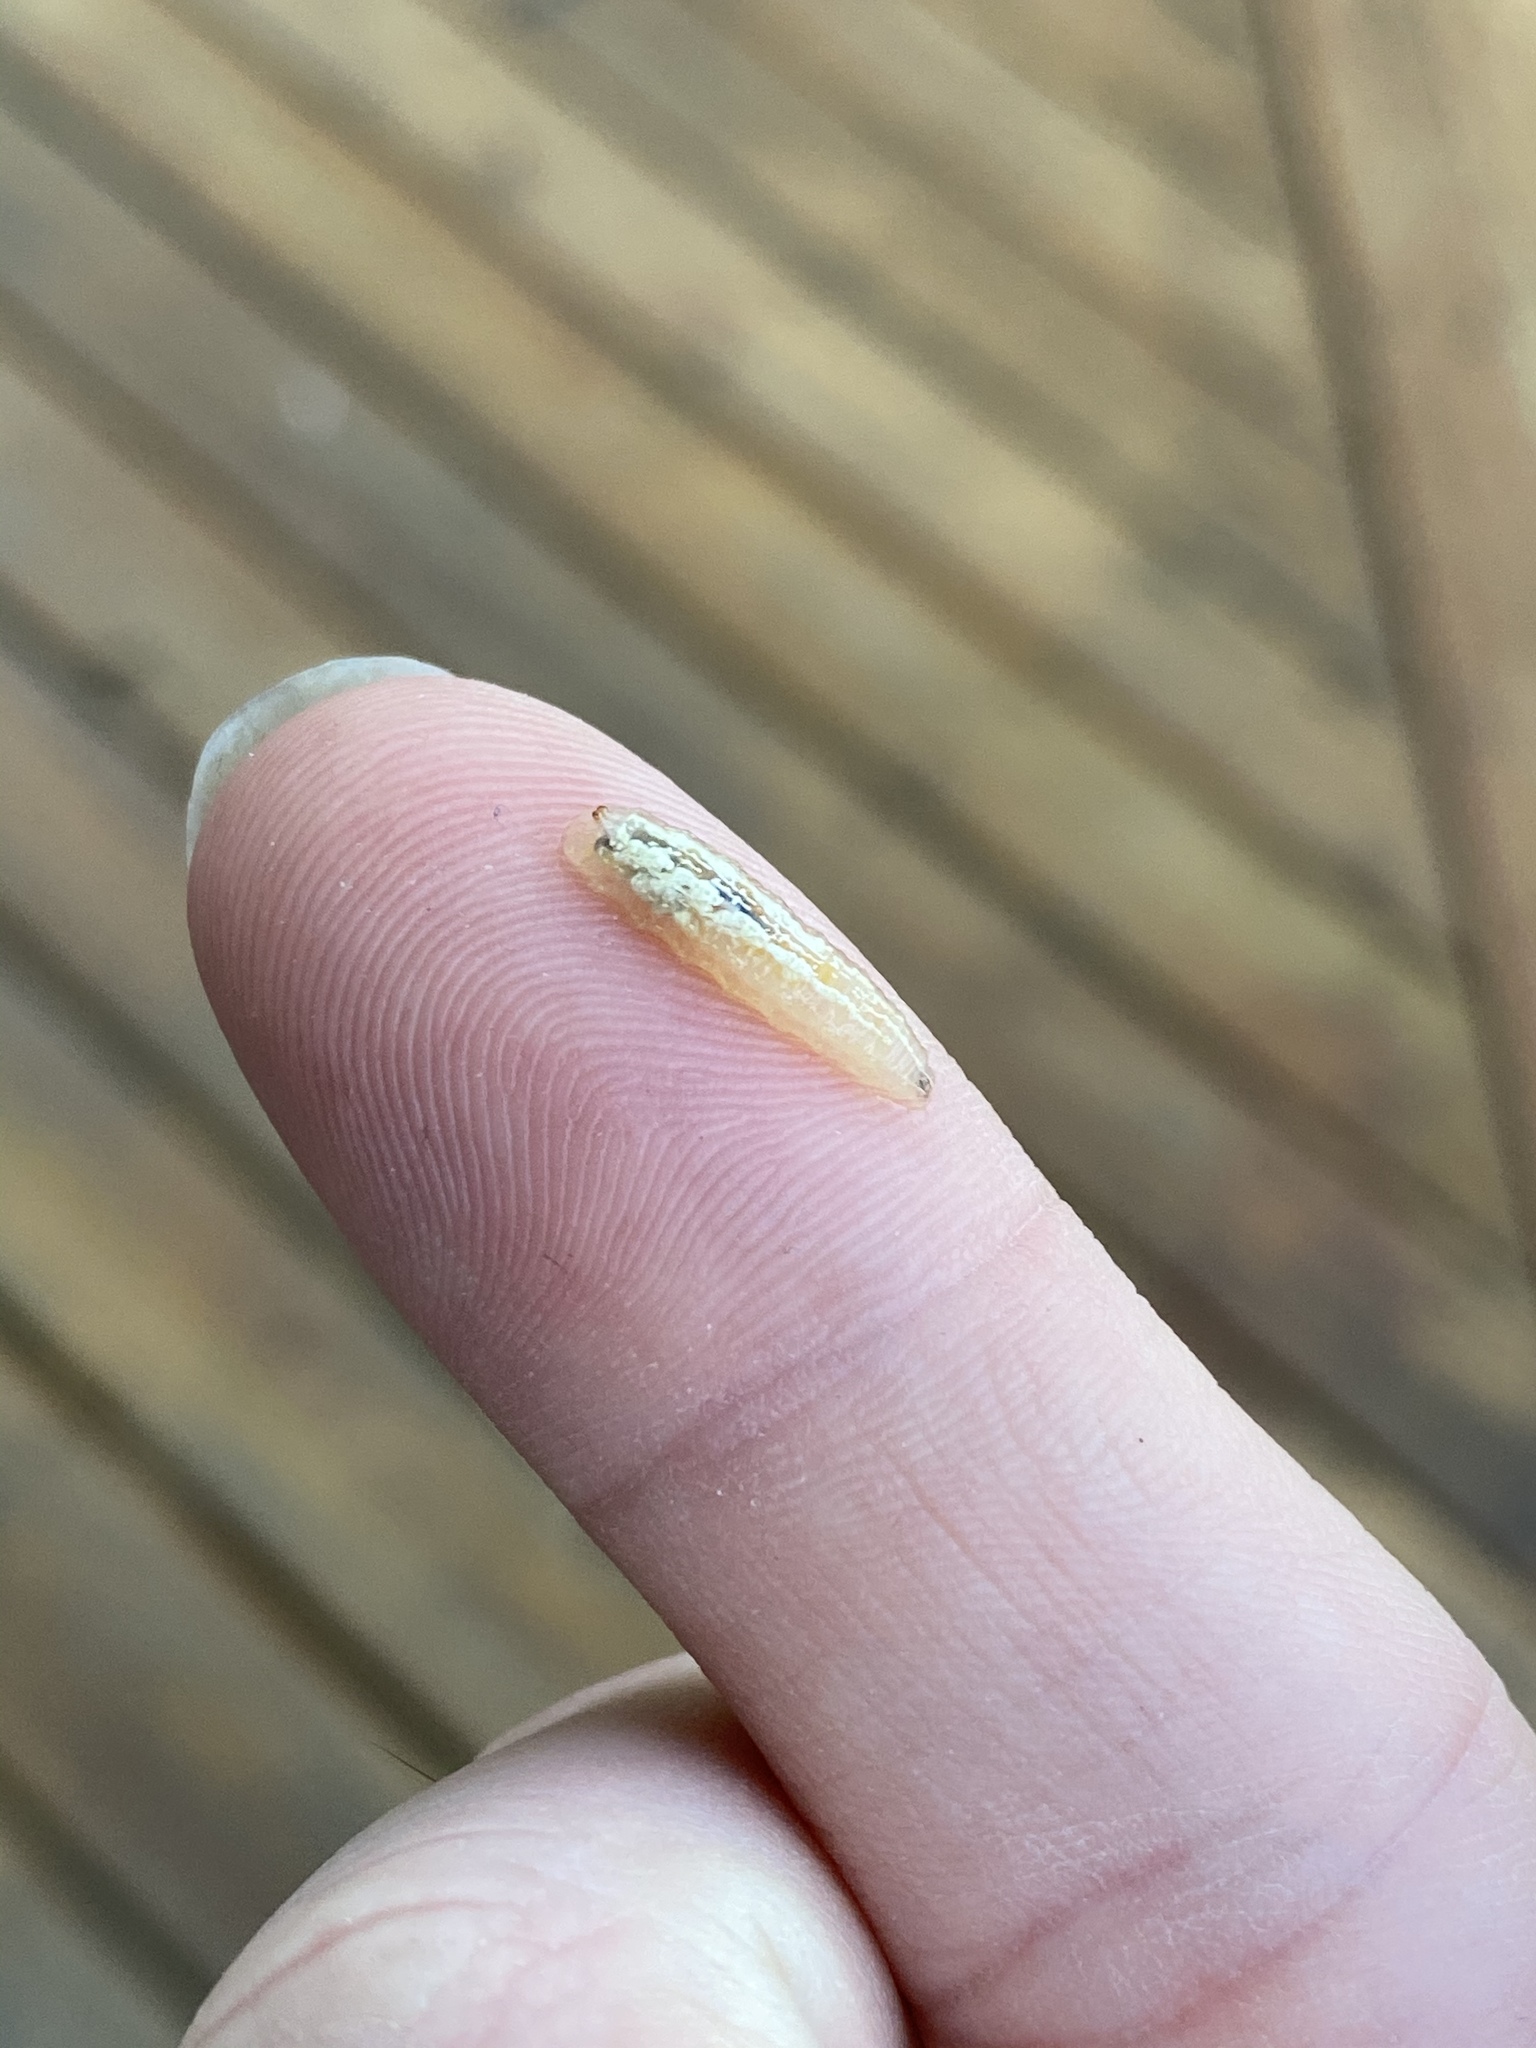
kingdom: Animalia
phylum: Arthropoda
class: Insecta
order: Diptera
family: Syrphidae
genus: Syrphus
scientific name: Syrphus
